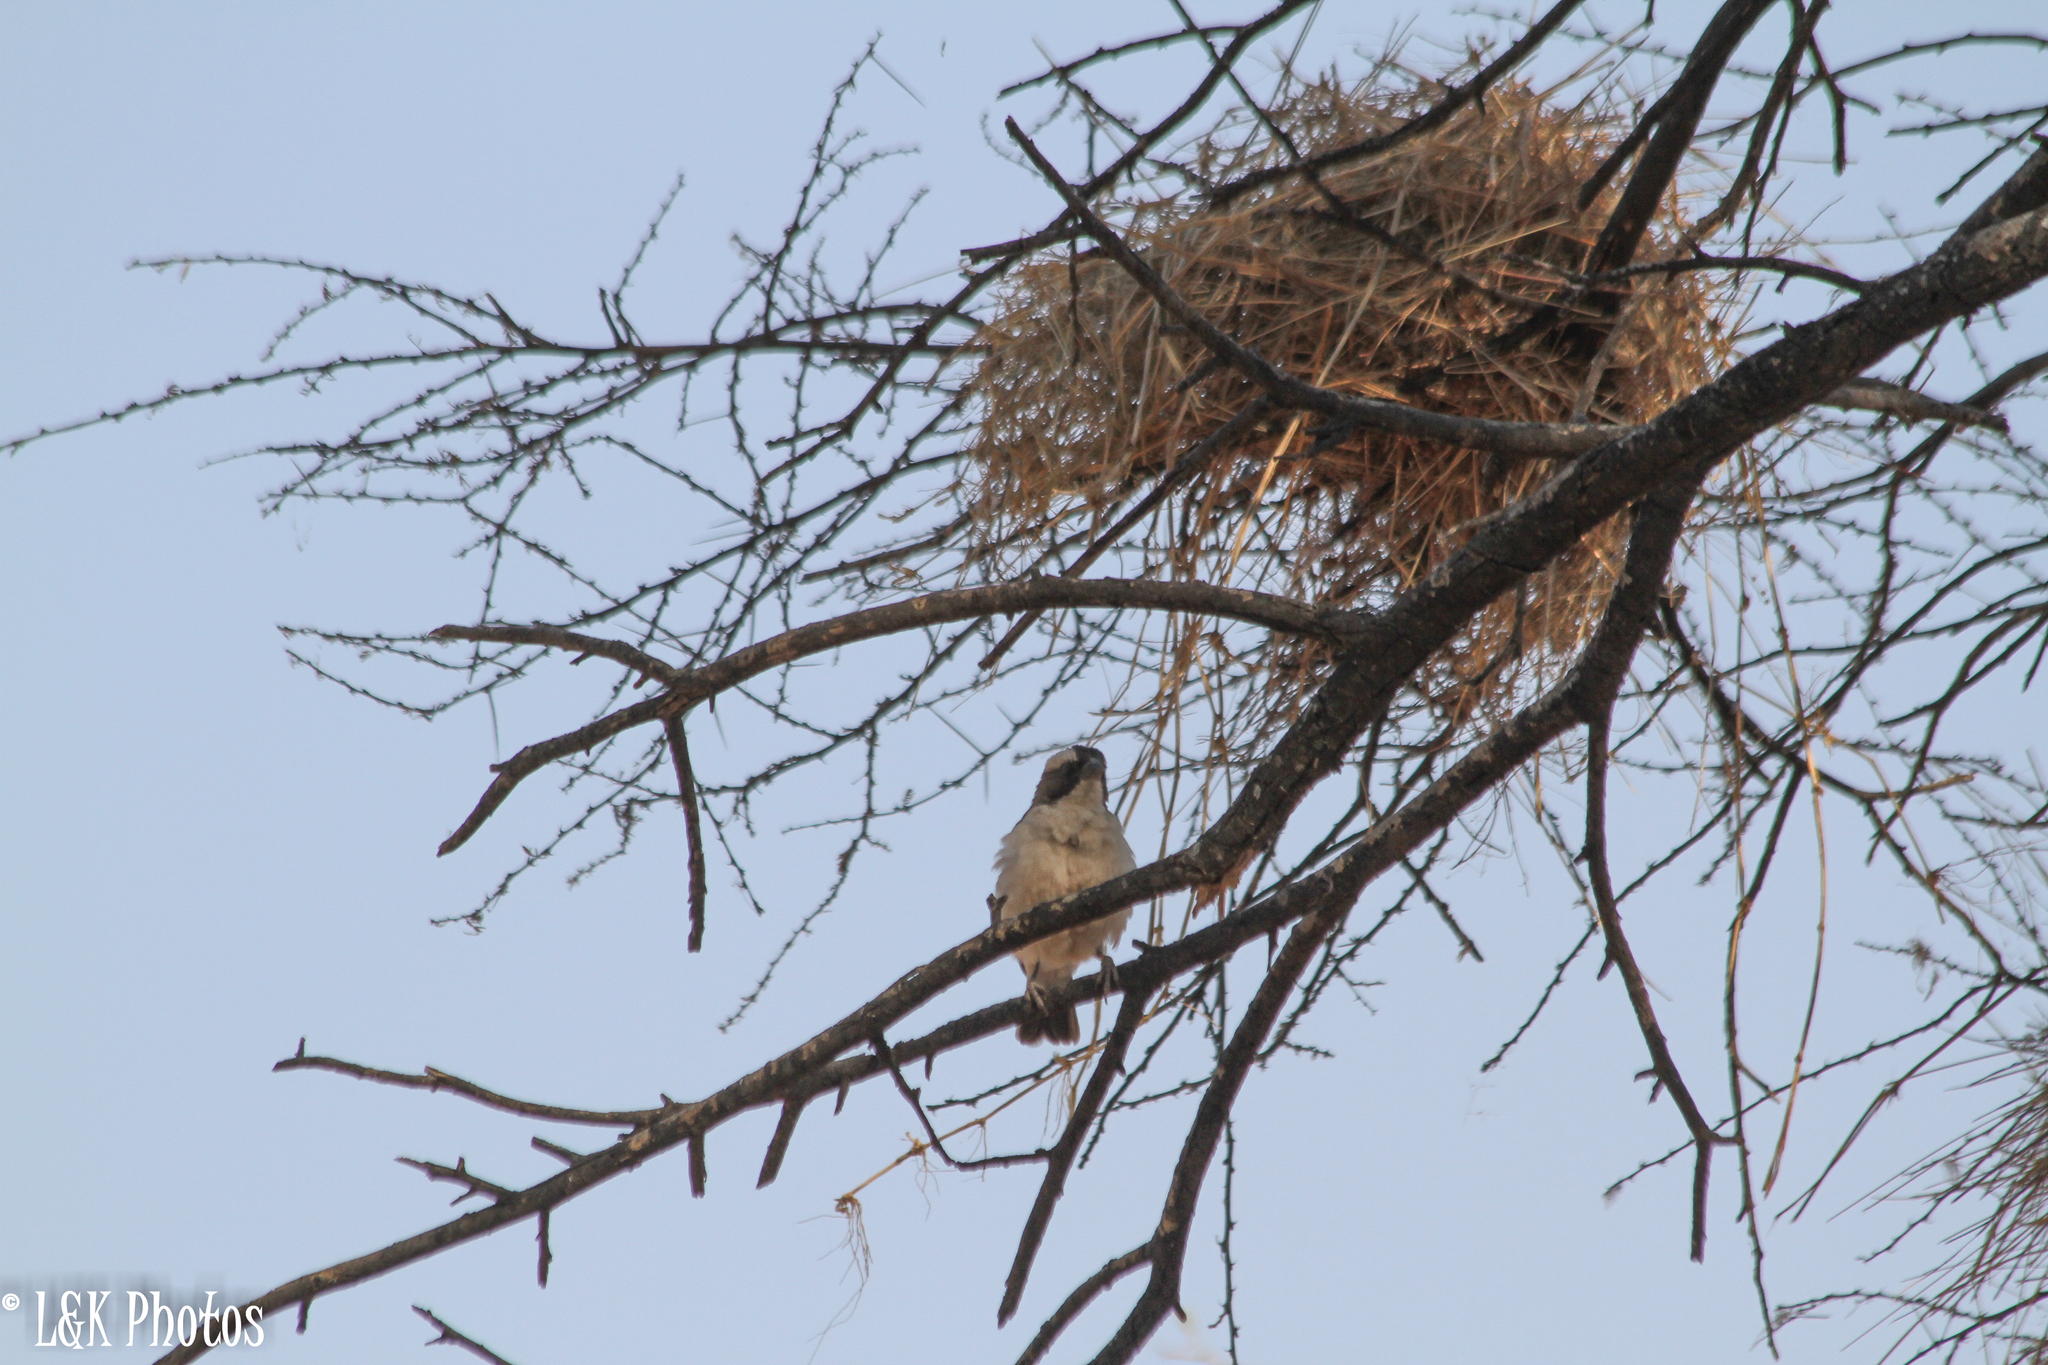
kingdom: Animalia
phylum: Chordata
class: Aves
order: Passeriformes
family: Passeridae
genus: Plocepasser
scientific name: Plocepasser mahali
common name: White-browed sparrow-weaver
